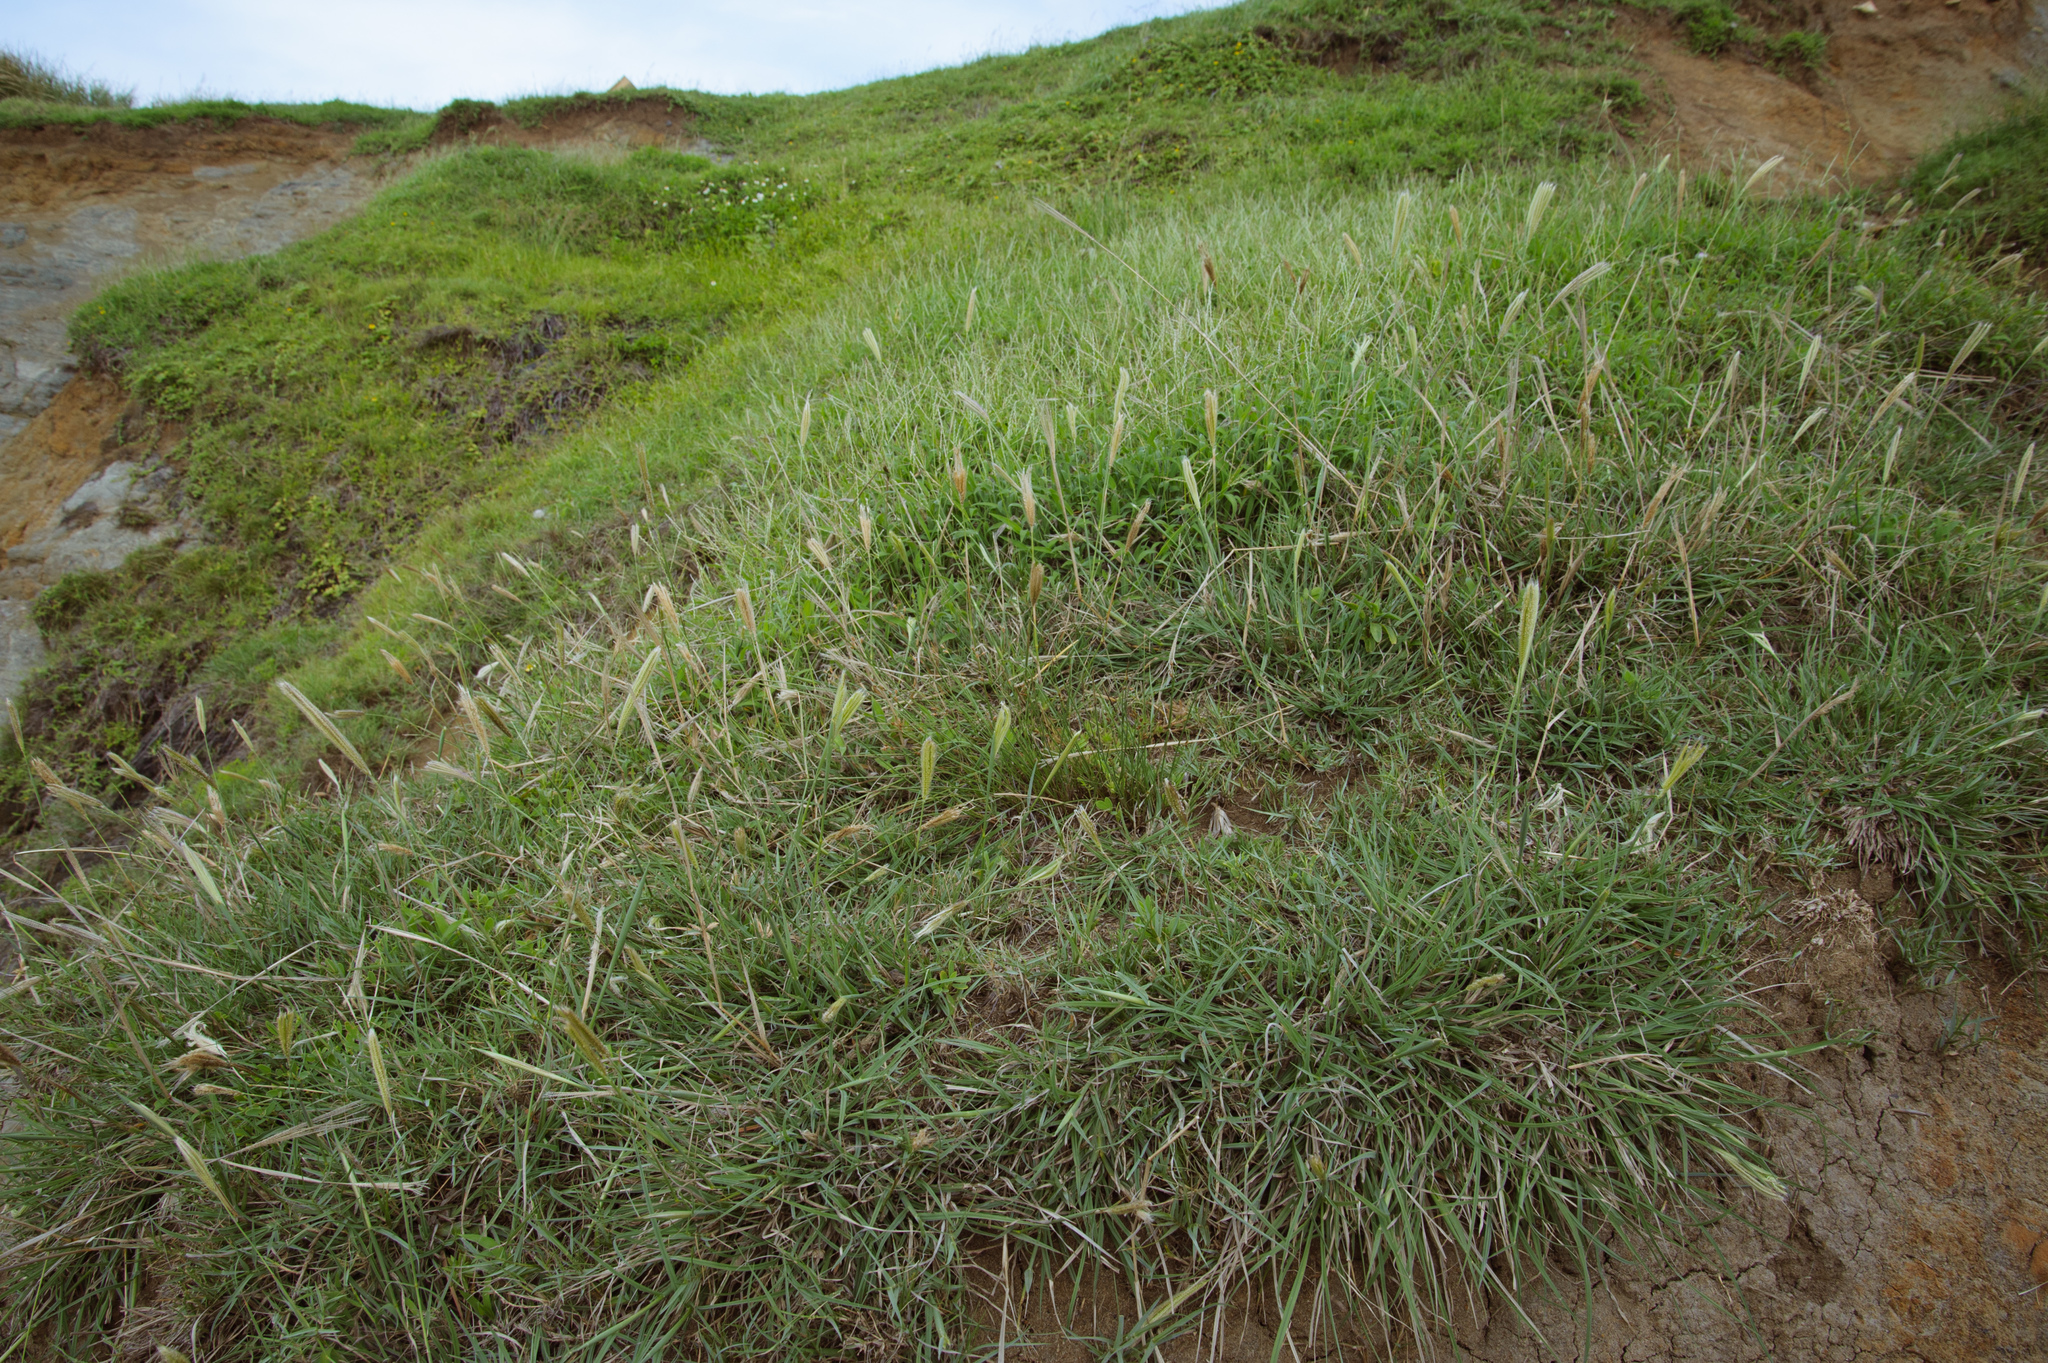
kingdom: Plantae
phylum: Tracheophyta
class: Liliopsida
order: Poales
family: Poaceae
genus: Chloris
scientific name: Chloris formosana
